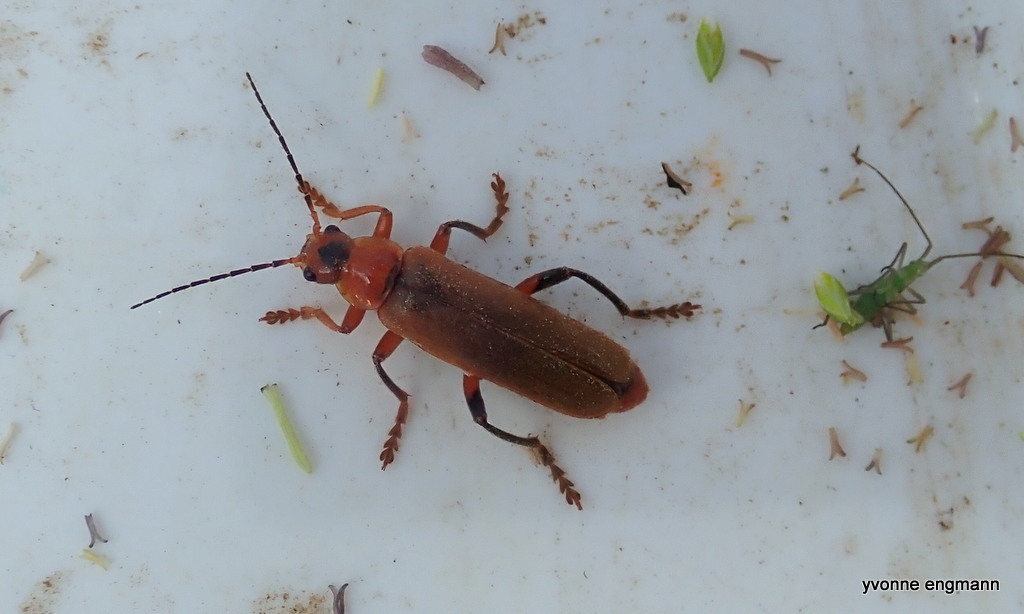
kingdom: Animalia
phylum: Arthropoda
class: Insecta
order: Coleoptera
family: Cantharidae
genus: Cantharis
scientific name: Cantharis livida
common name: Livid soldier beetle
